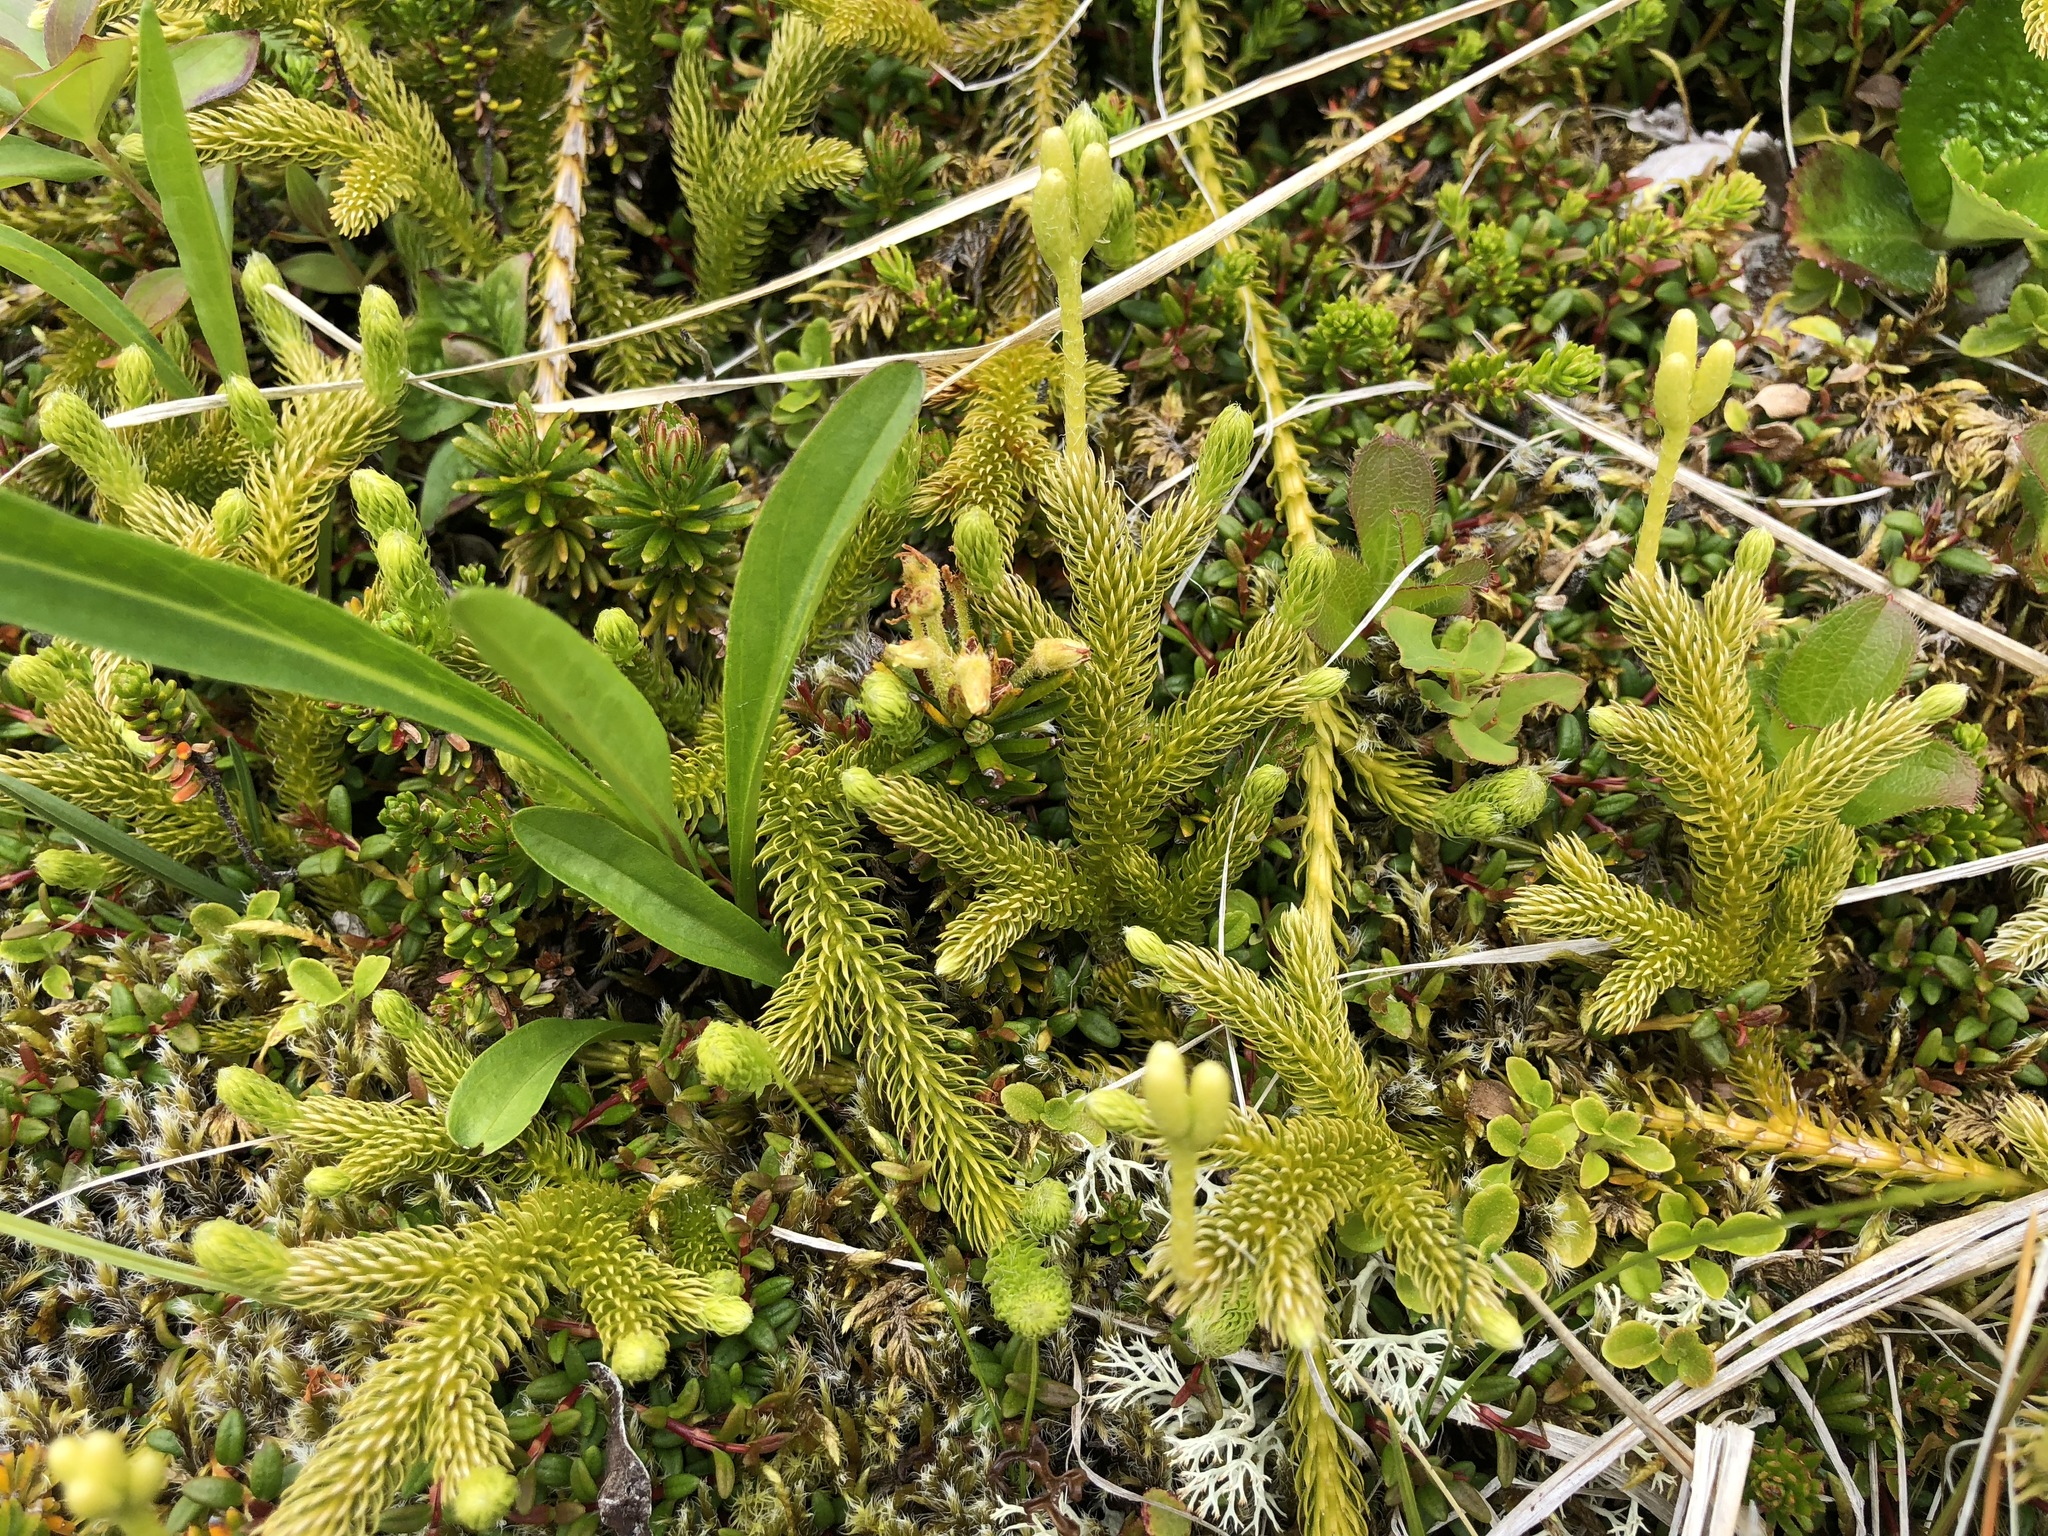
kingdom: Plantae
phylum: Tracheophyta
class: Lycopodiopsida
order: Lycopodiales
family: Lycopodiaceae
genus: Lycopodium
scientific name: Lycopodium clavatum
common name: Stag's-horn clubmoss
